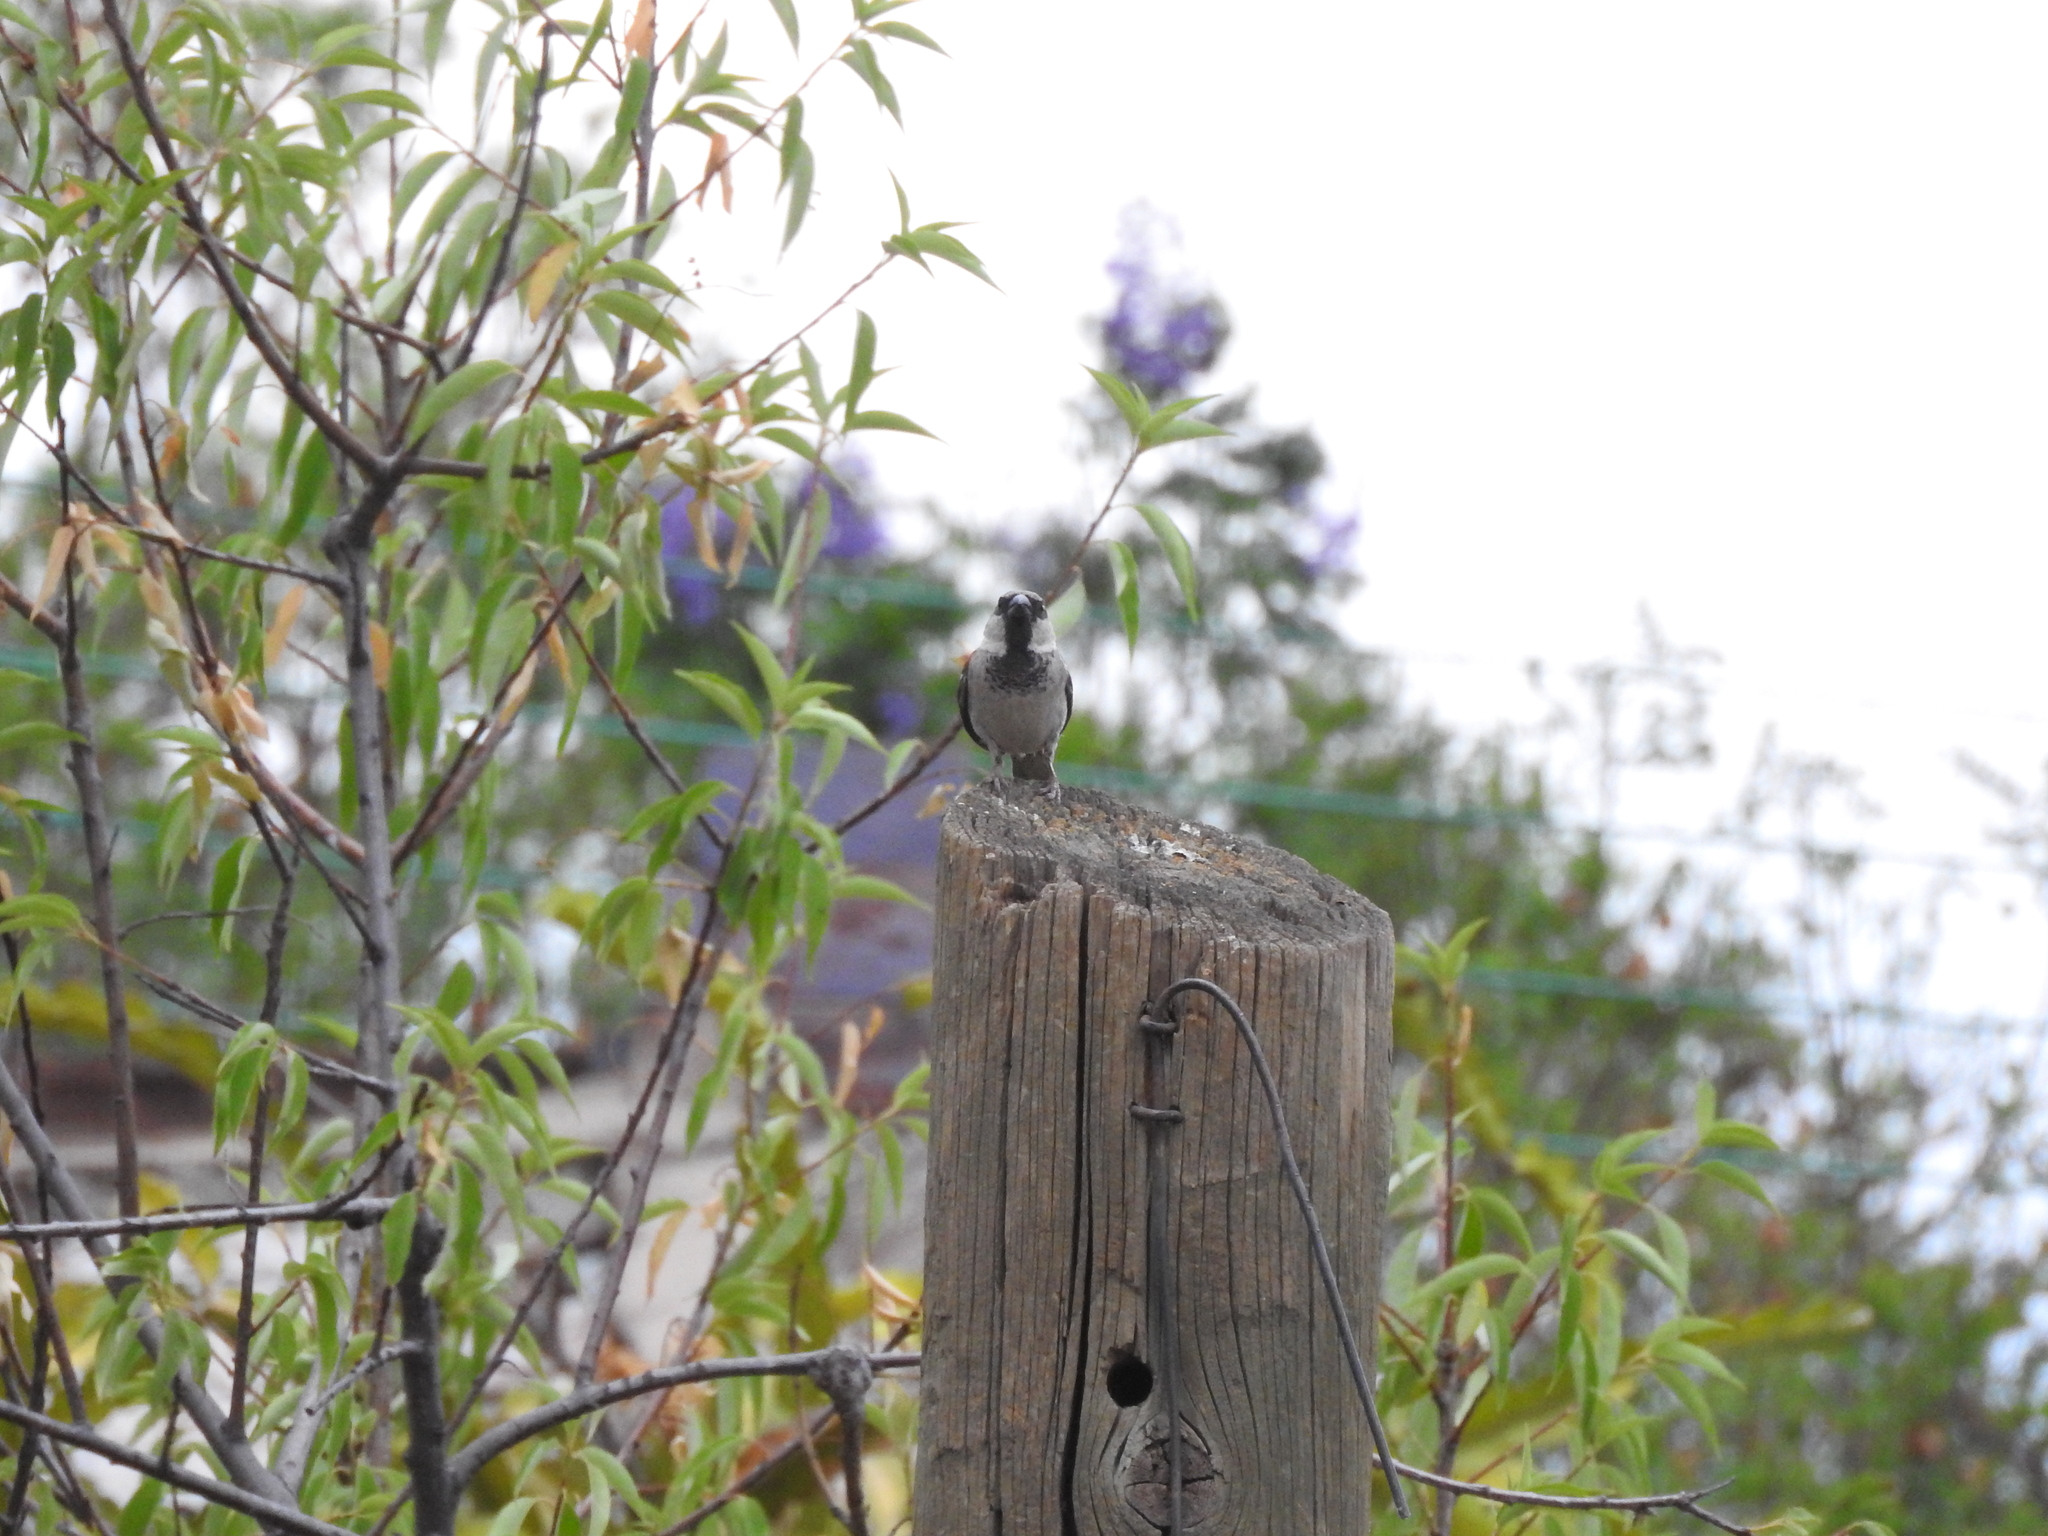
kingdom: Animalia
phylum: Chordata
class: Aves
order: Passeriformes
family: Passeridae
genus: Passer
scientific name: Passer domesticus
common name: House sparrow
